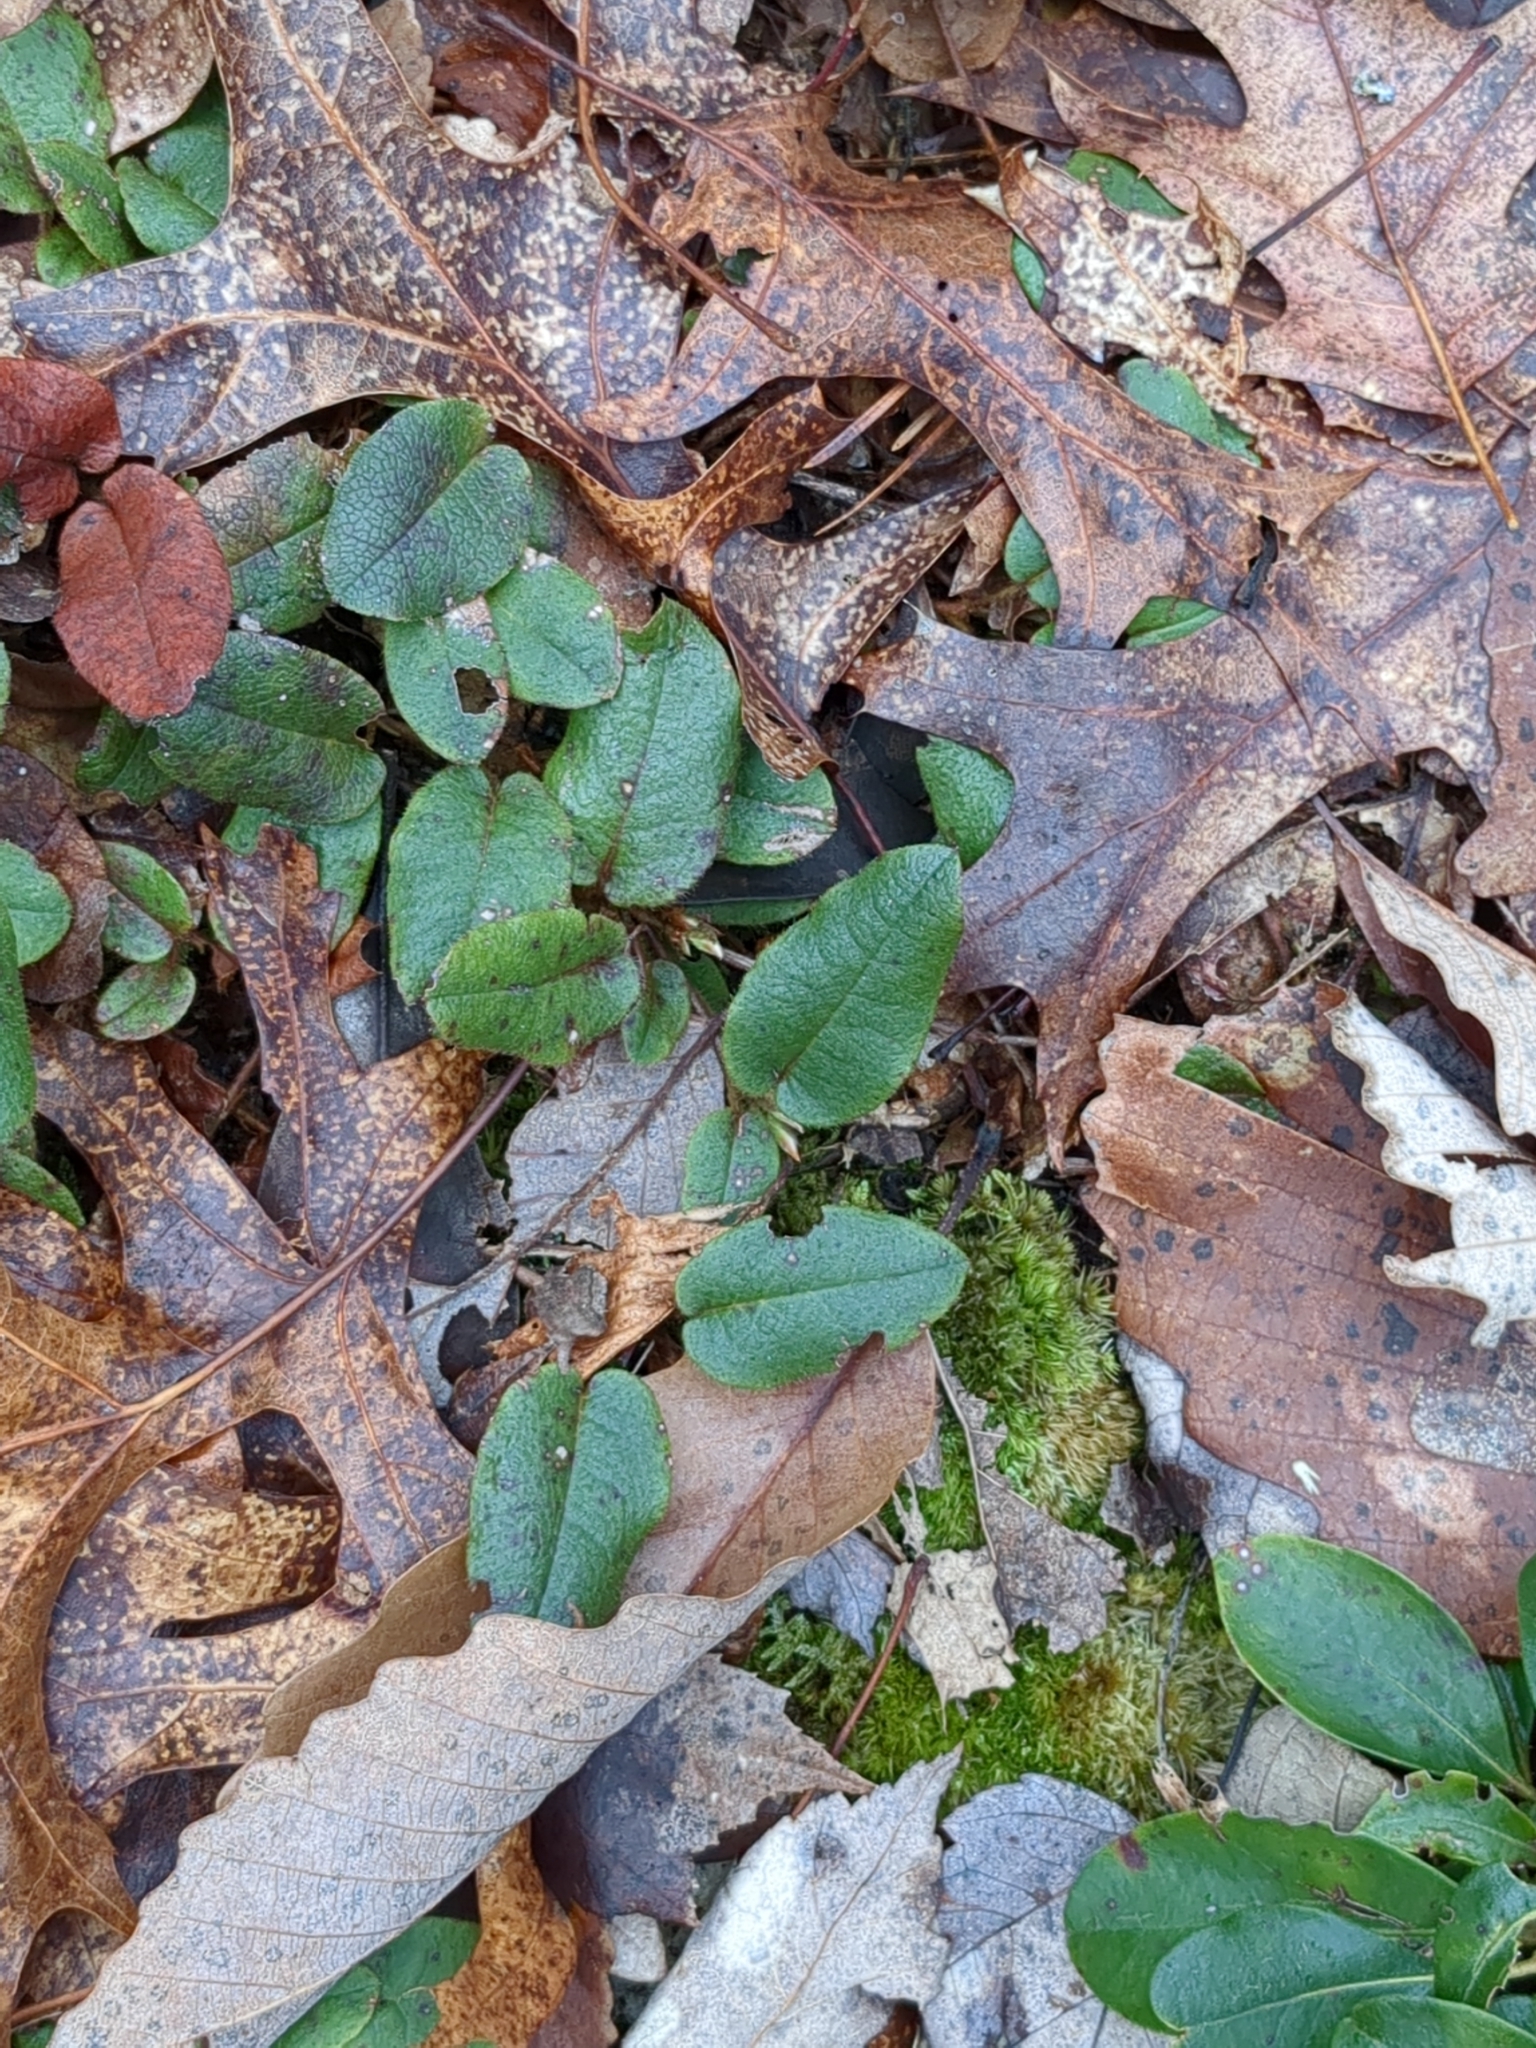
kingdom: Plantae
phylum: Tracheophyta
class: Magnoliopsida
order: Ericales
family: Ericaceae
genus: Epigaea
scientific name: Epigaea repens
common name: Gravelroot
